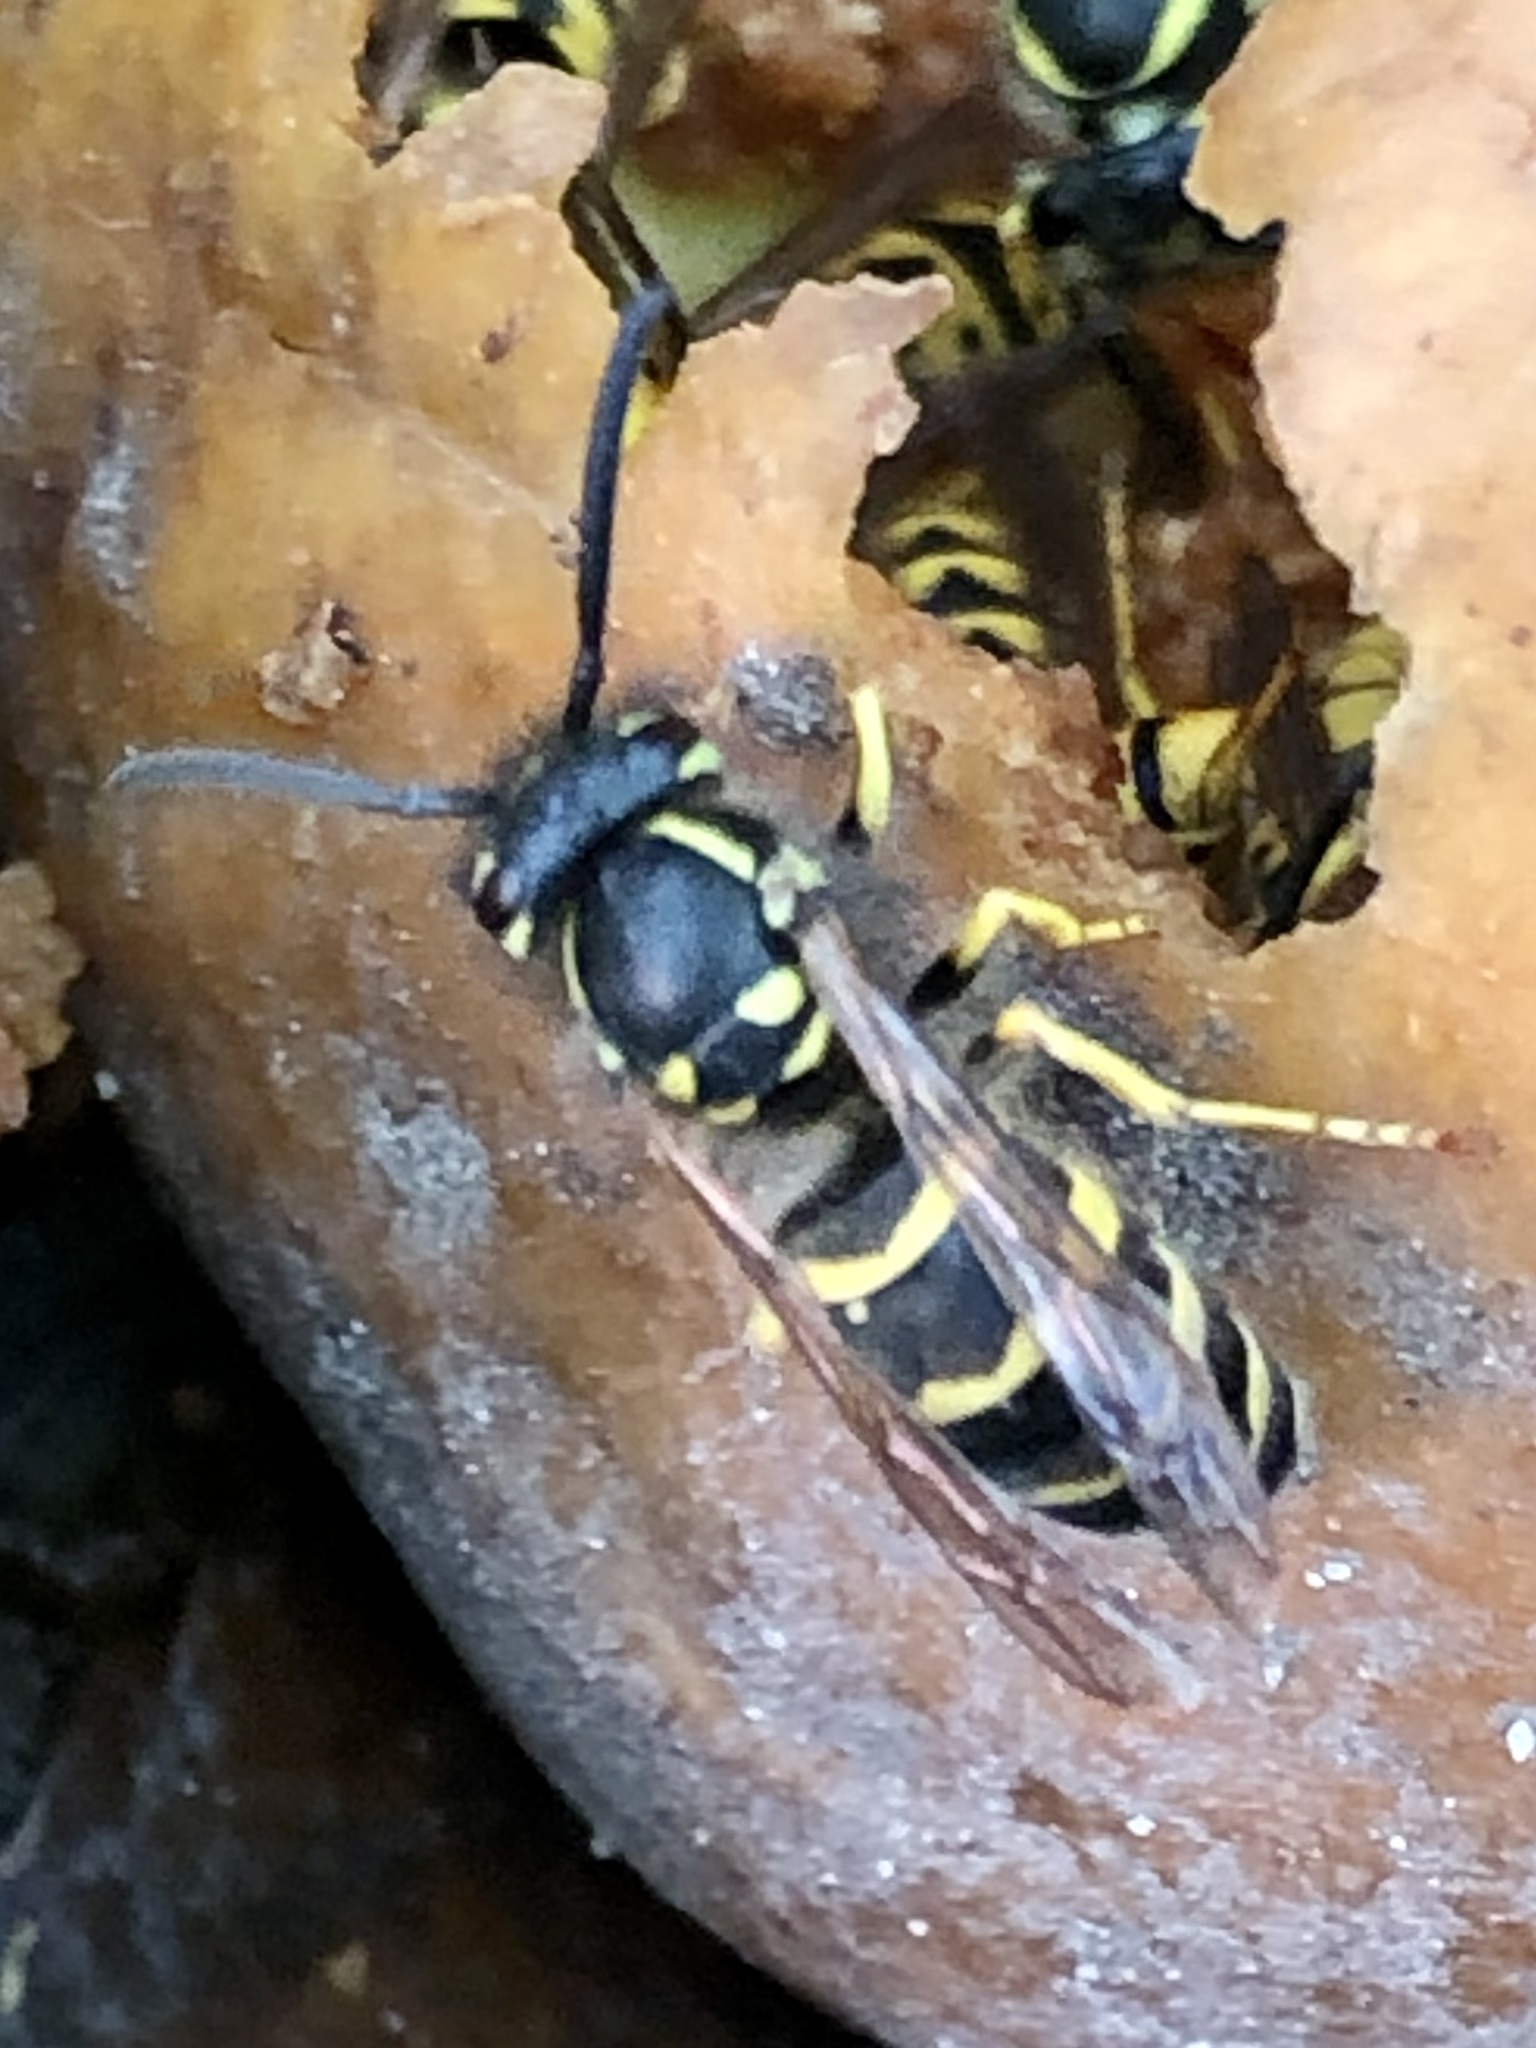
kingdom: Animalia
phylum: Arthropoda
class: Insecta
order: Hymenoptera
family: Vespidae
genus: Vespula
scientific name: Vespula alascensis
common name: Alaska yellowjacket
